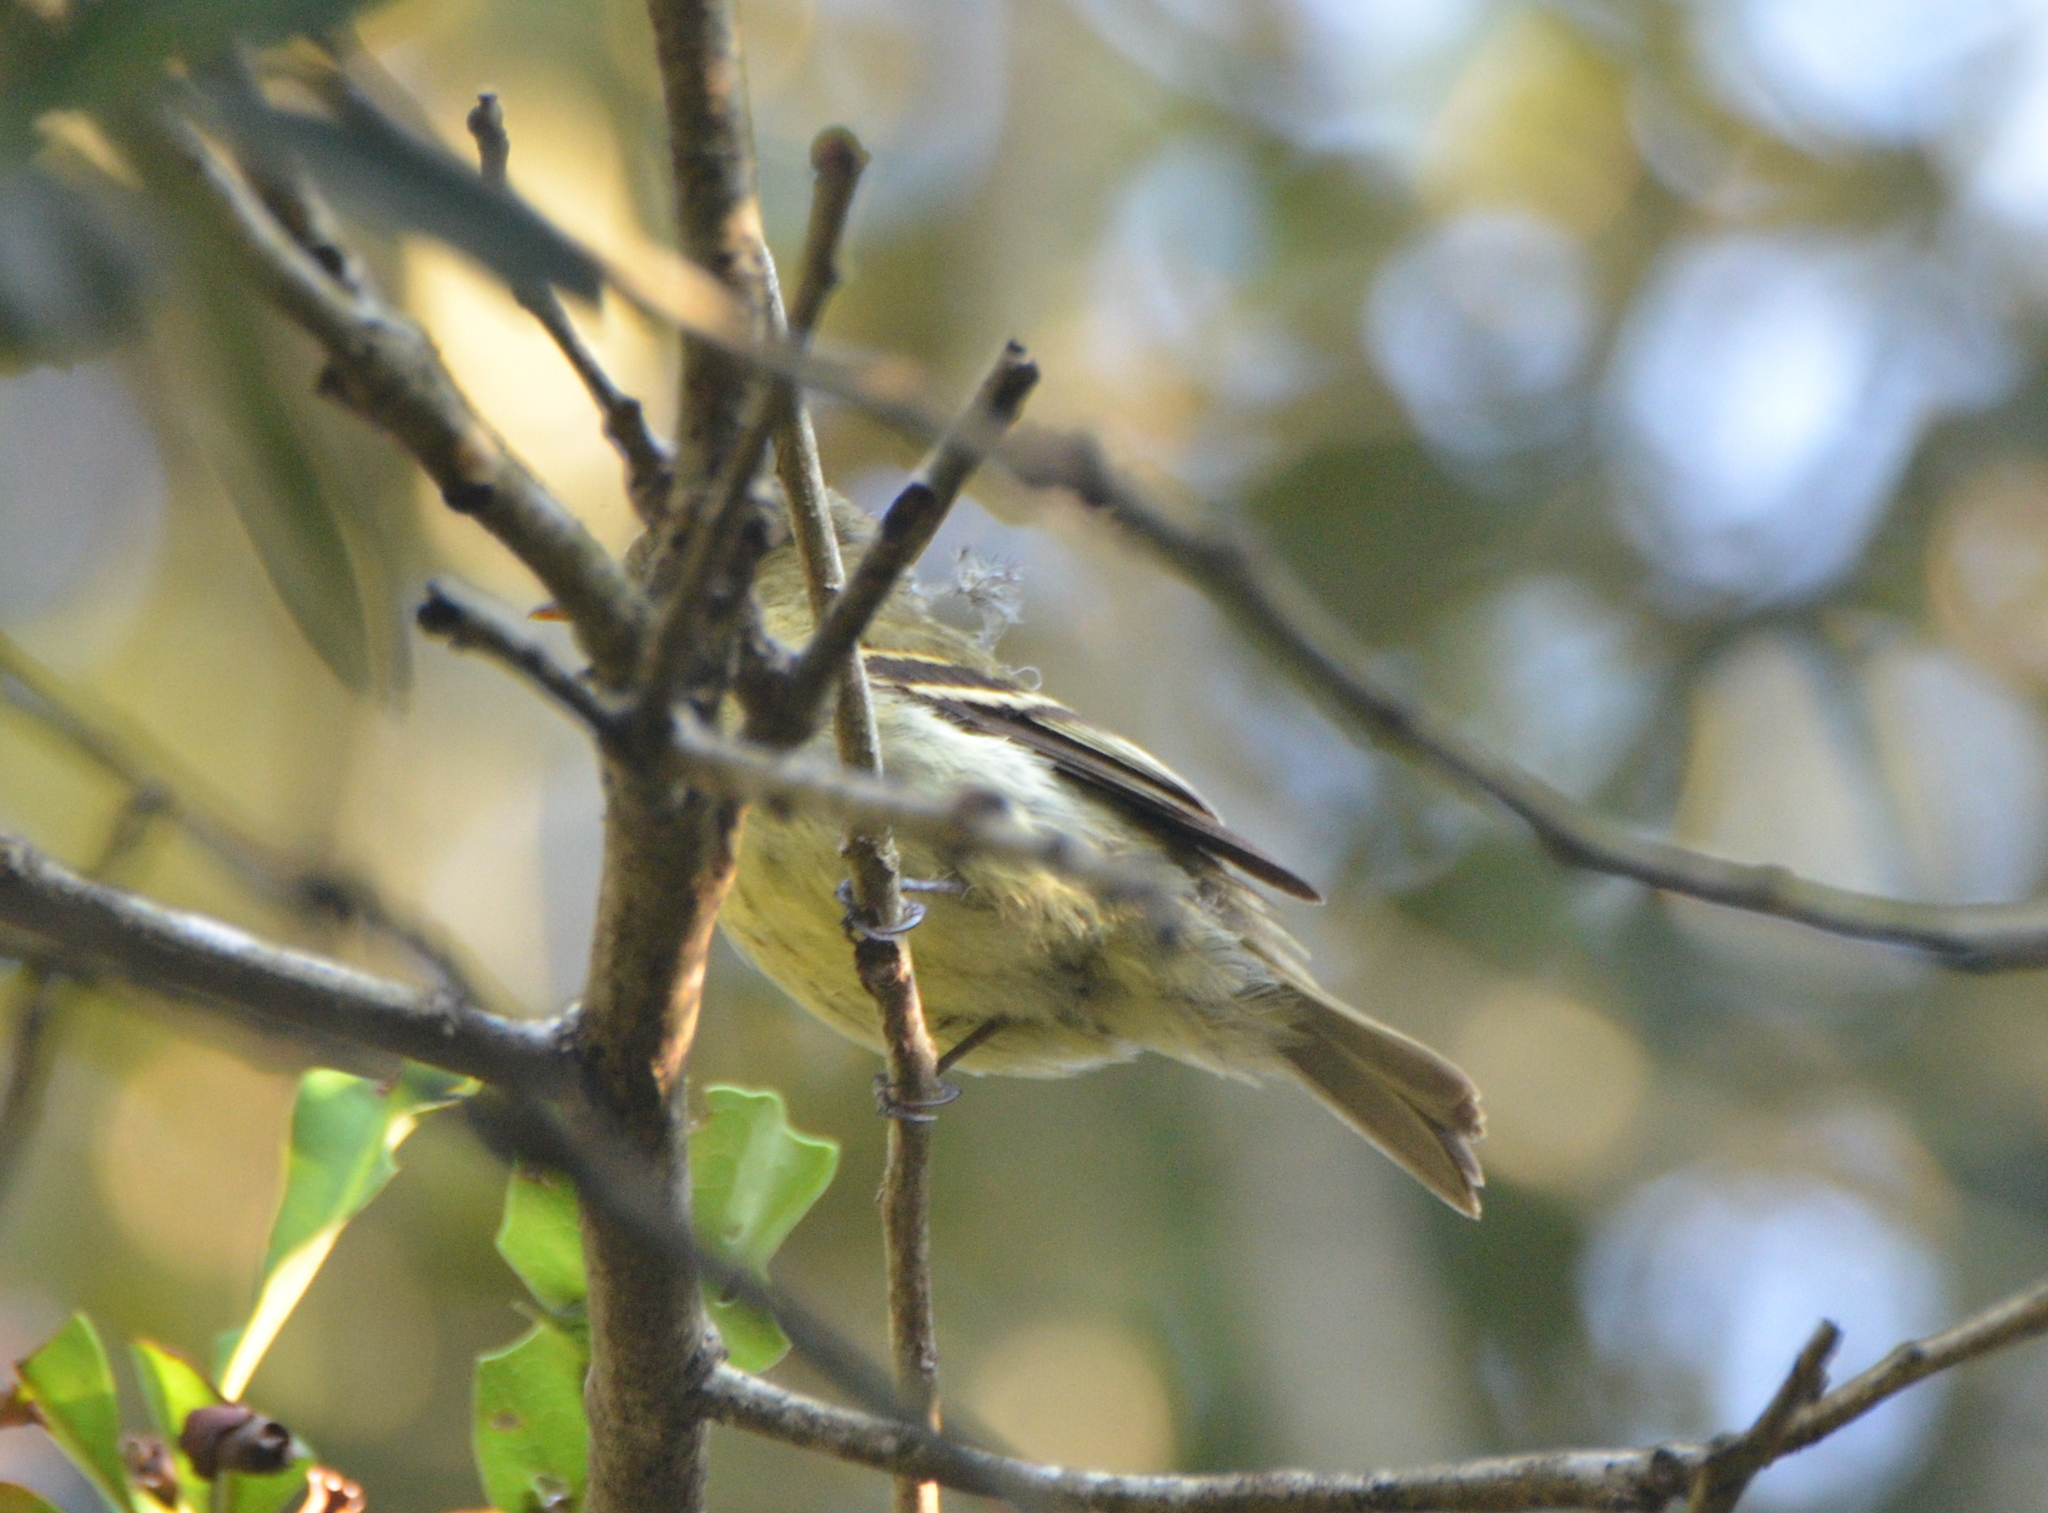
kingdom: Animalia
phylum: Chordata
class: Aves
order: Passeriformes
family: Tyrannidae
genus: Empidonax
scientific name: Empidonax minimus
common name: Least flycatcher
